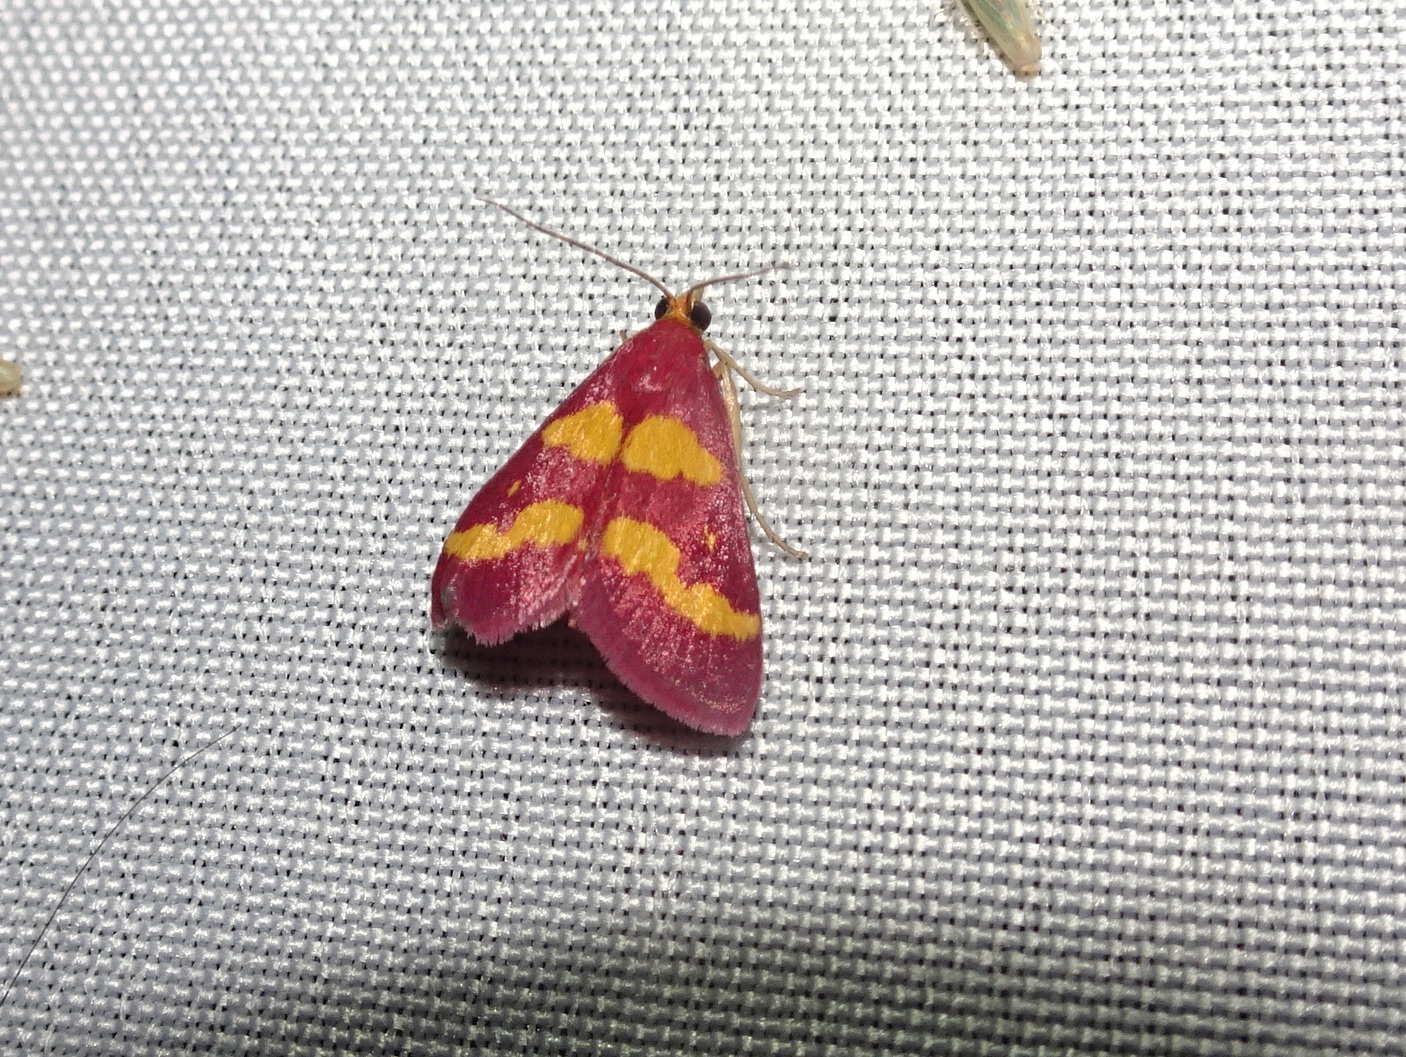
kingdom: Animalia
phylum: Arthropoda
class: Insecta
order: Lepidoptera
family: Crambidae
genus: Pyrausta
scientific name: Pyrausta tyralis
